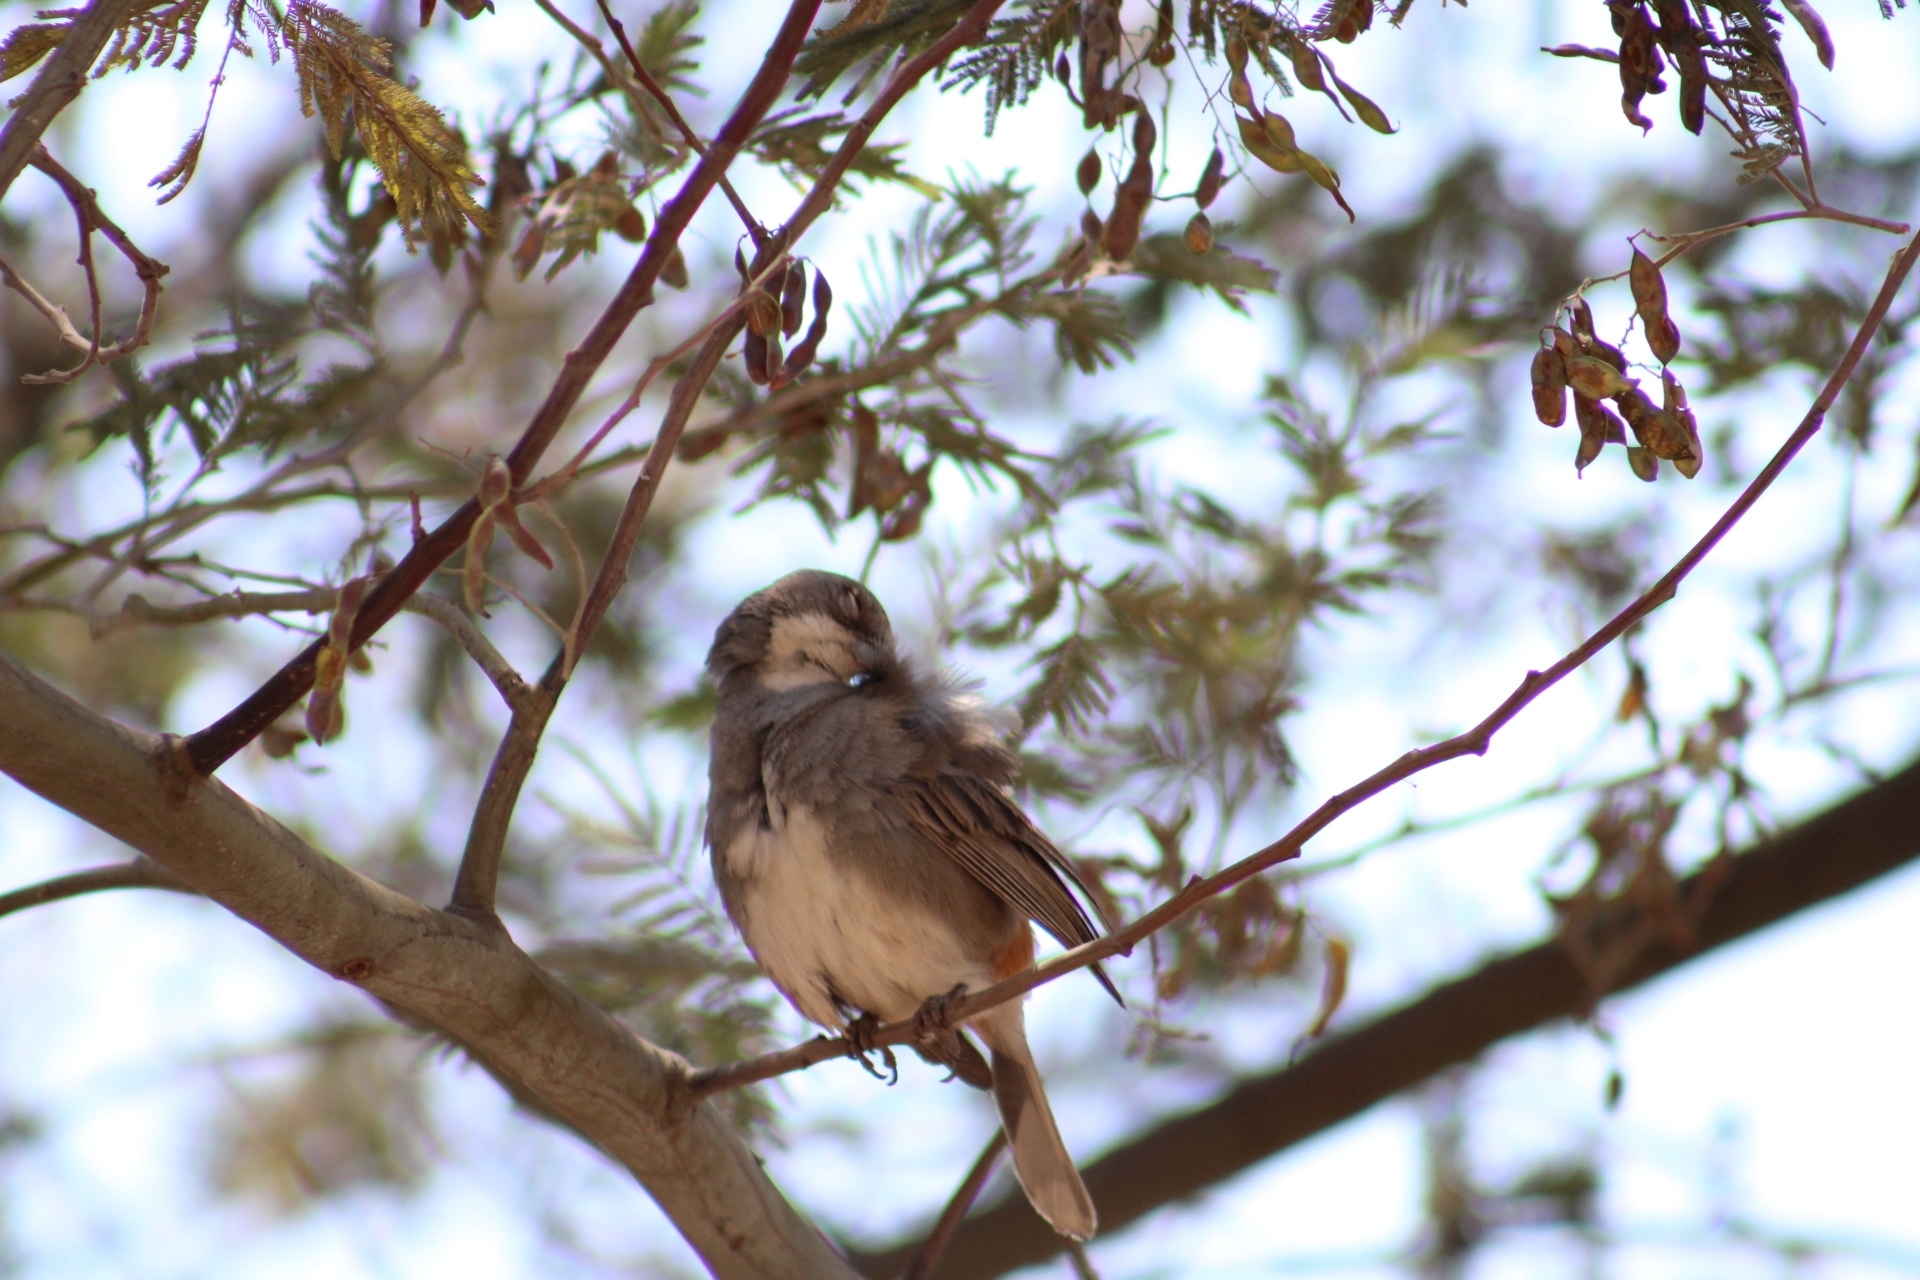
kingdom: Animalia
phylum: Chordata
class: Aves
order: Passeriformes
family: Thraupidae
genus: Diuca
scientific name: Diuca diuca
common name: Common diuca finch
